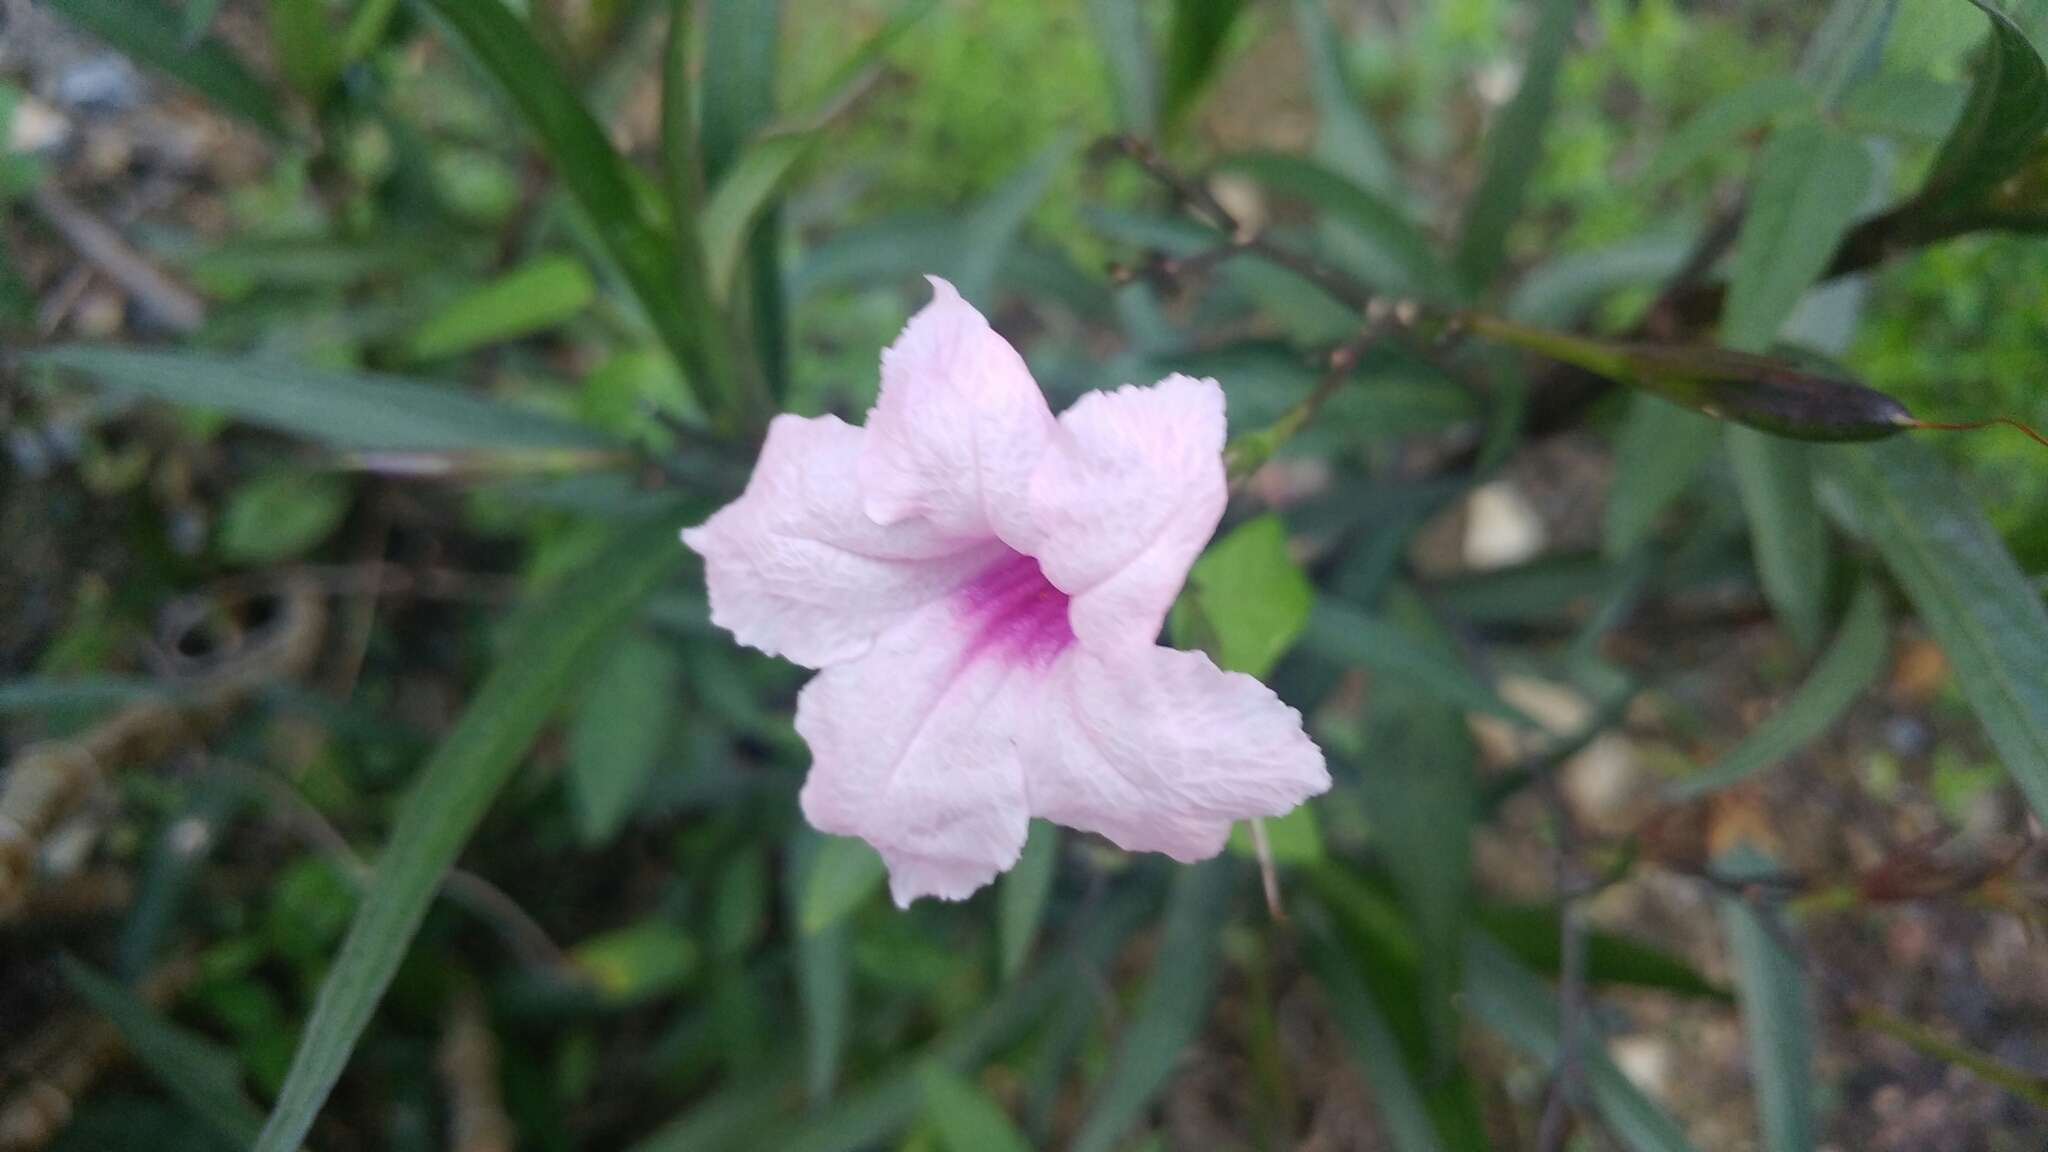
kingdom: Plantae
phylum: Tracheophyta
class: Magnoliopsida
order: Lamiales
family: Acanthaceae
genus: Ruellia
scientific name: Ruellia simplex
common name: Softseed wild petunia
